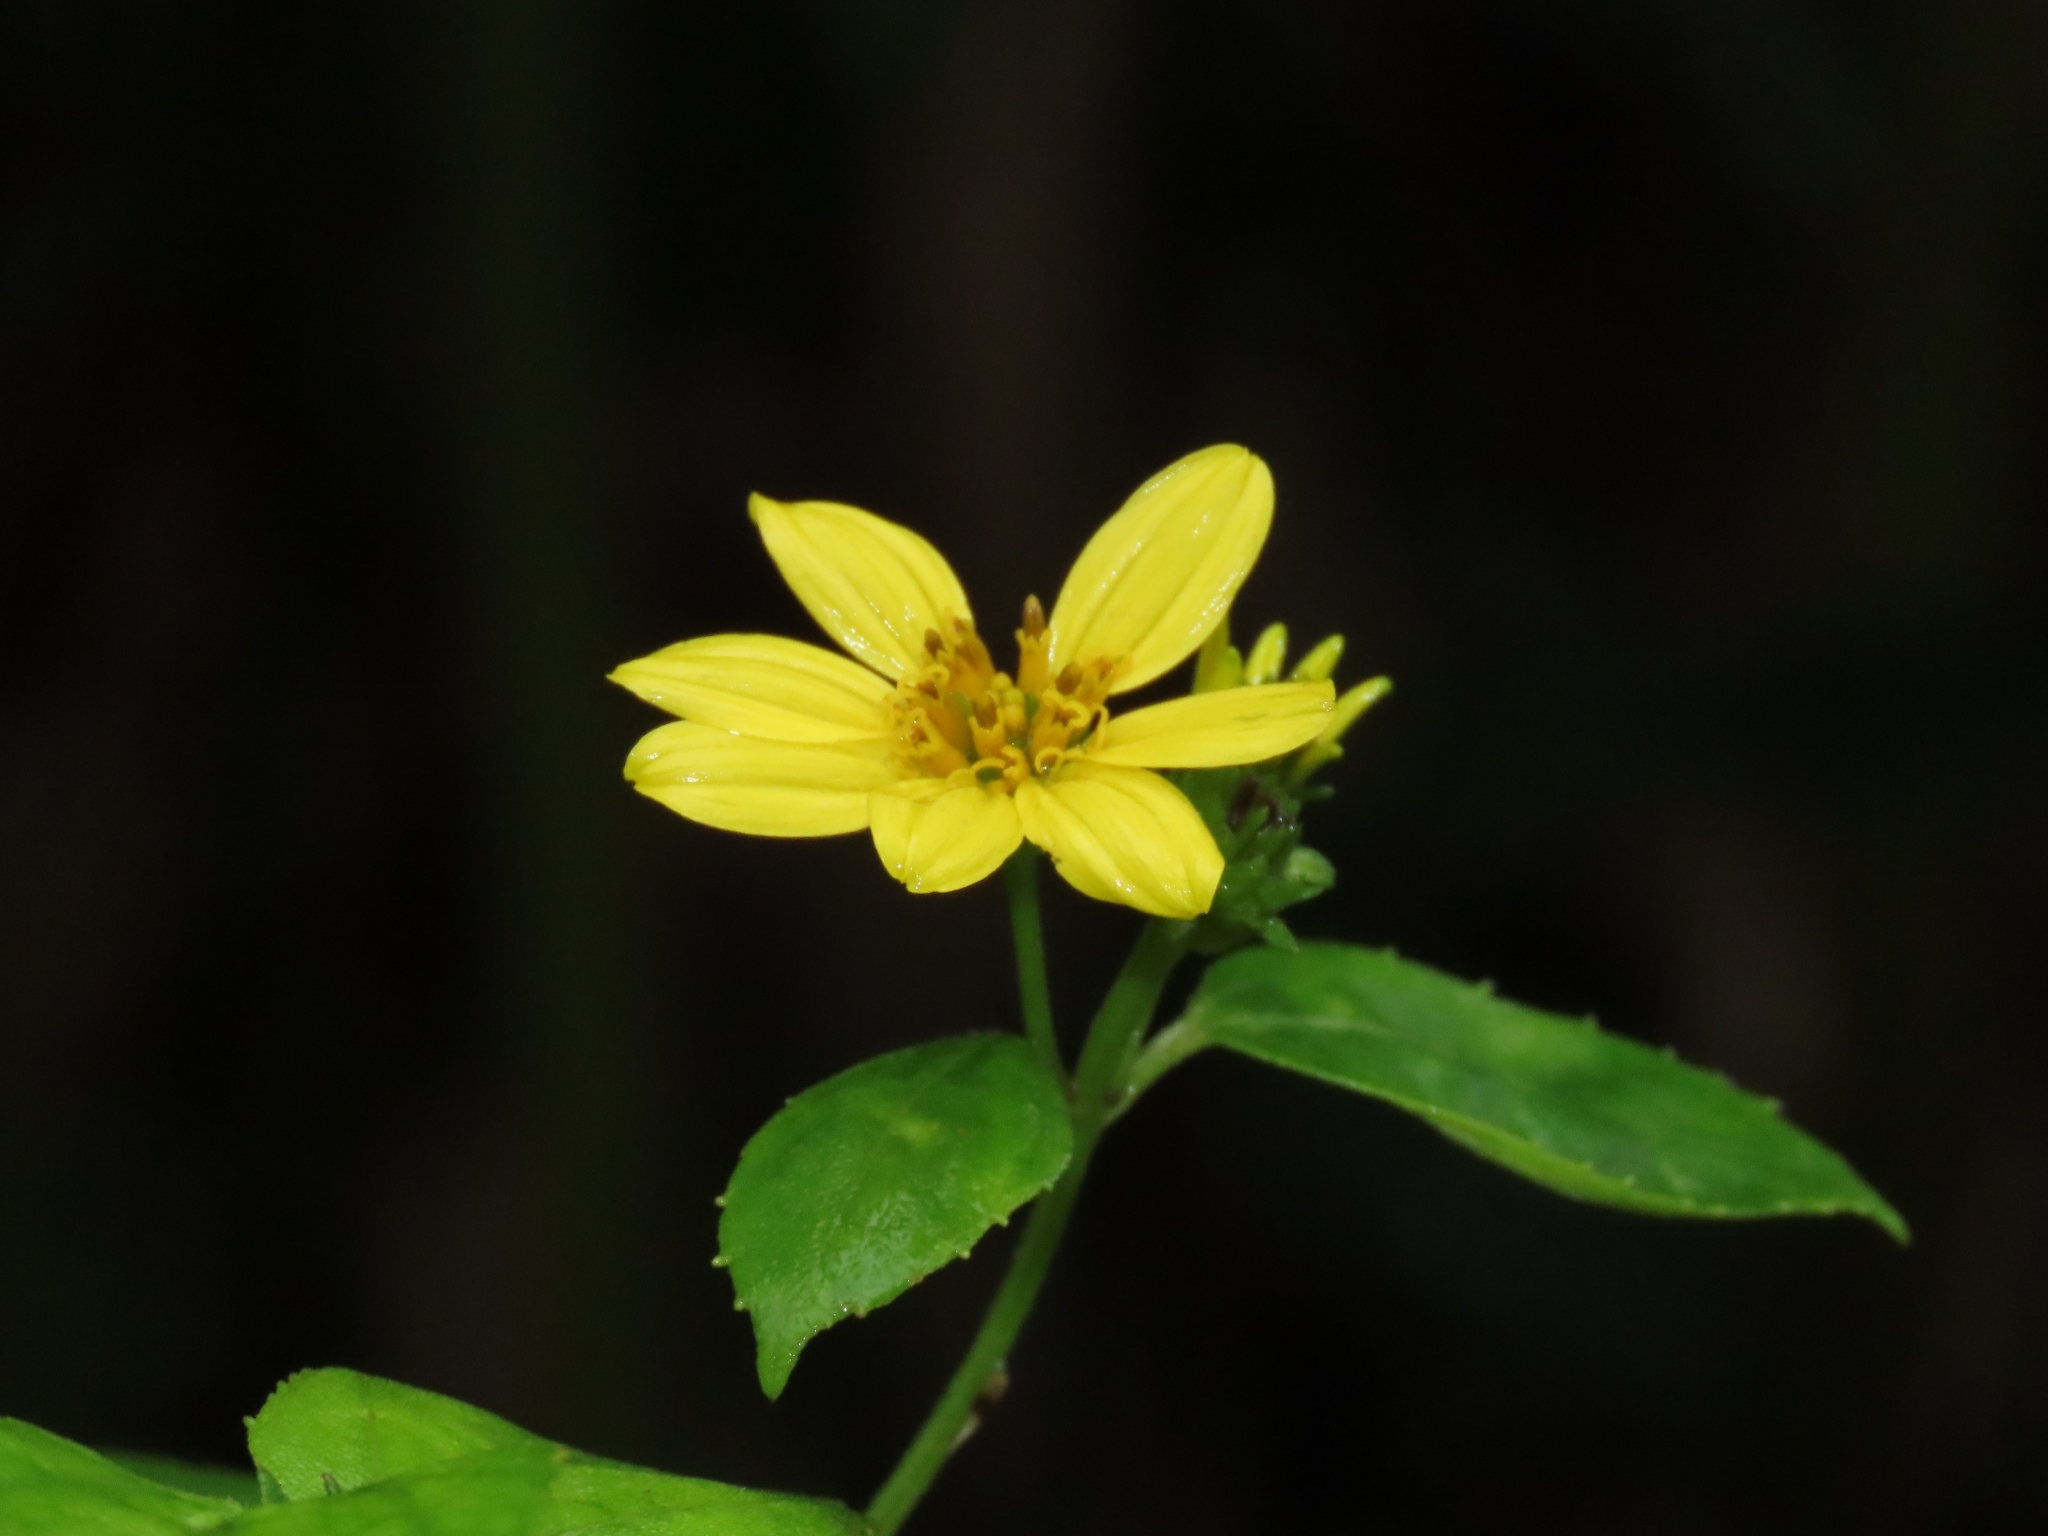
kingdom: Plantae
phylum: Tracheophyta
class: Magnoliopsida
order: Asterales
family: Asteraceae
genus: Wollastonia
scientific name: Wollastonia biflora
